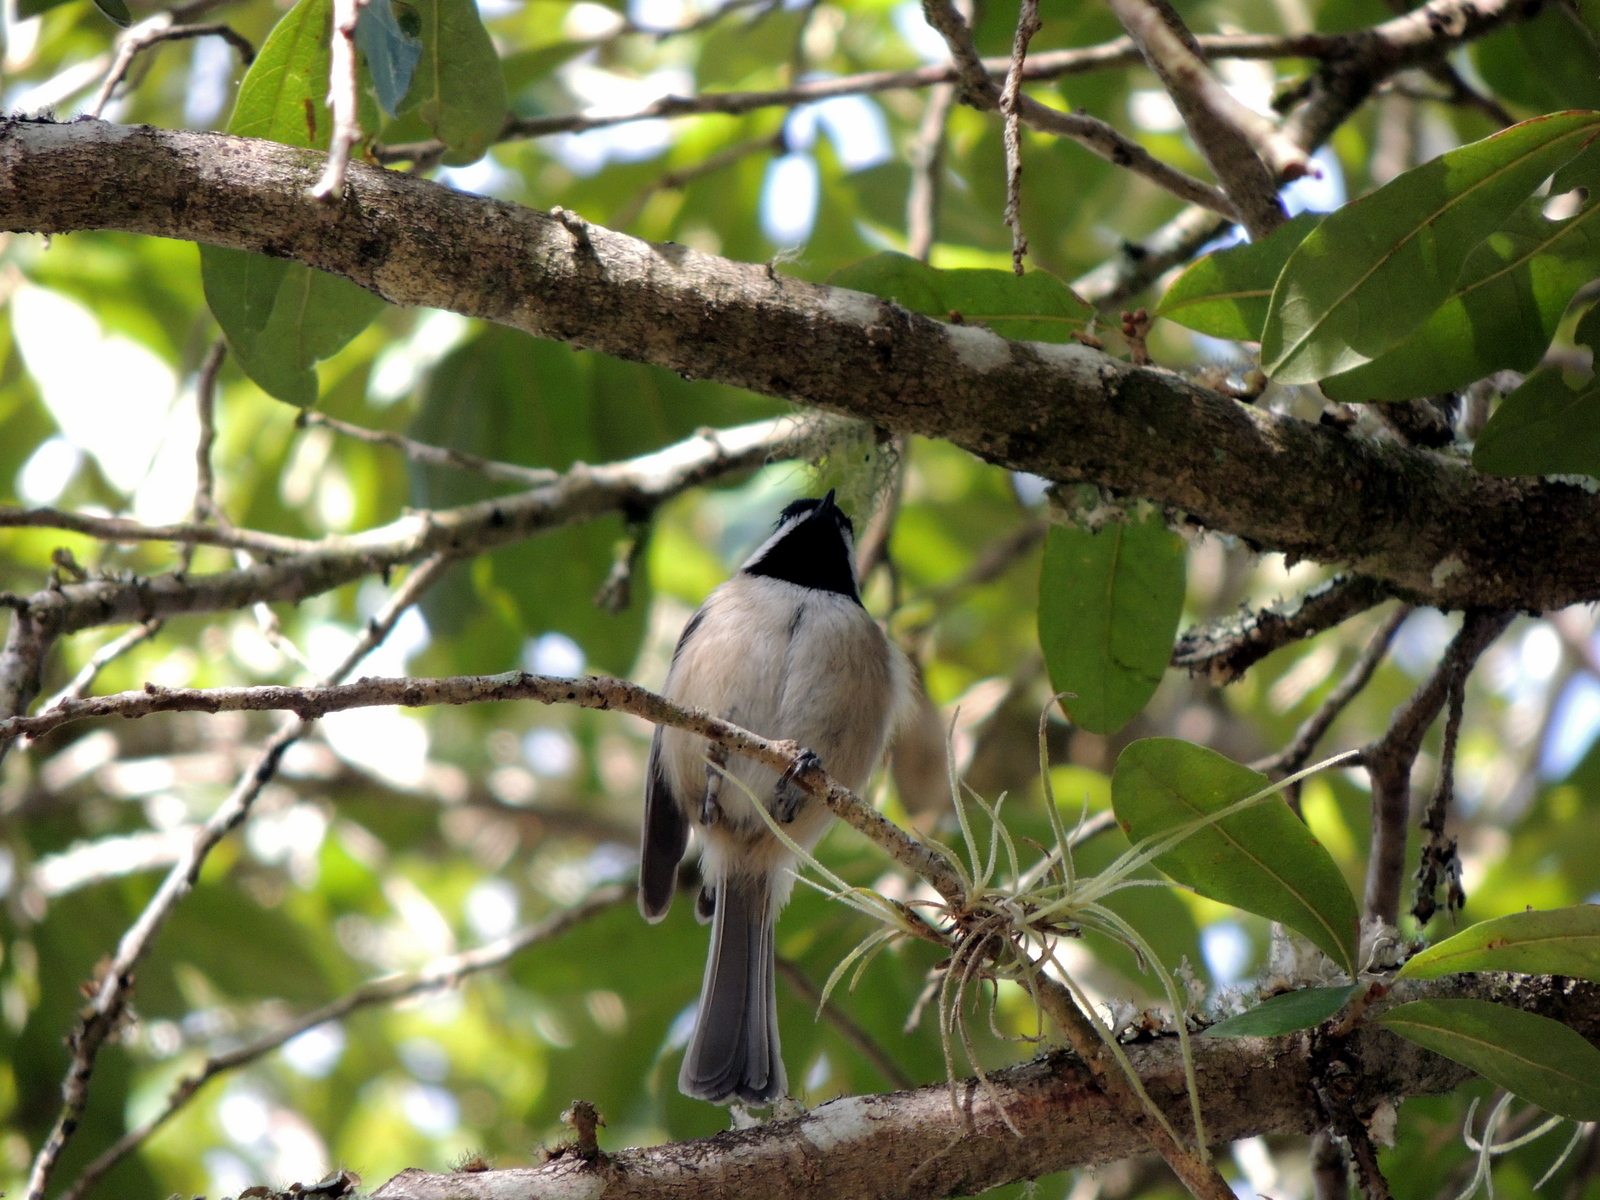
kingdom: Animalia
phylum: Chordata
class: Aves
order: Passeriformes
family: Paridae
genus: Poecile
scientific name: Poecile carolinensis
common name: Carolina chickadee
